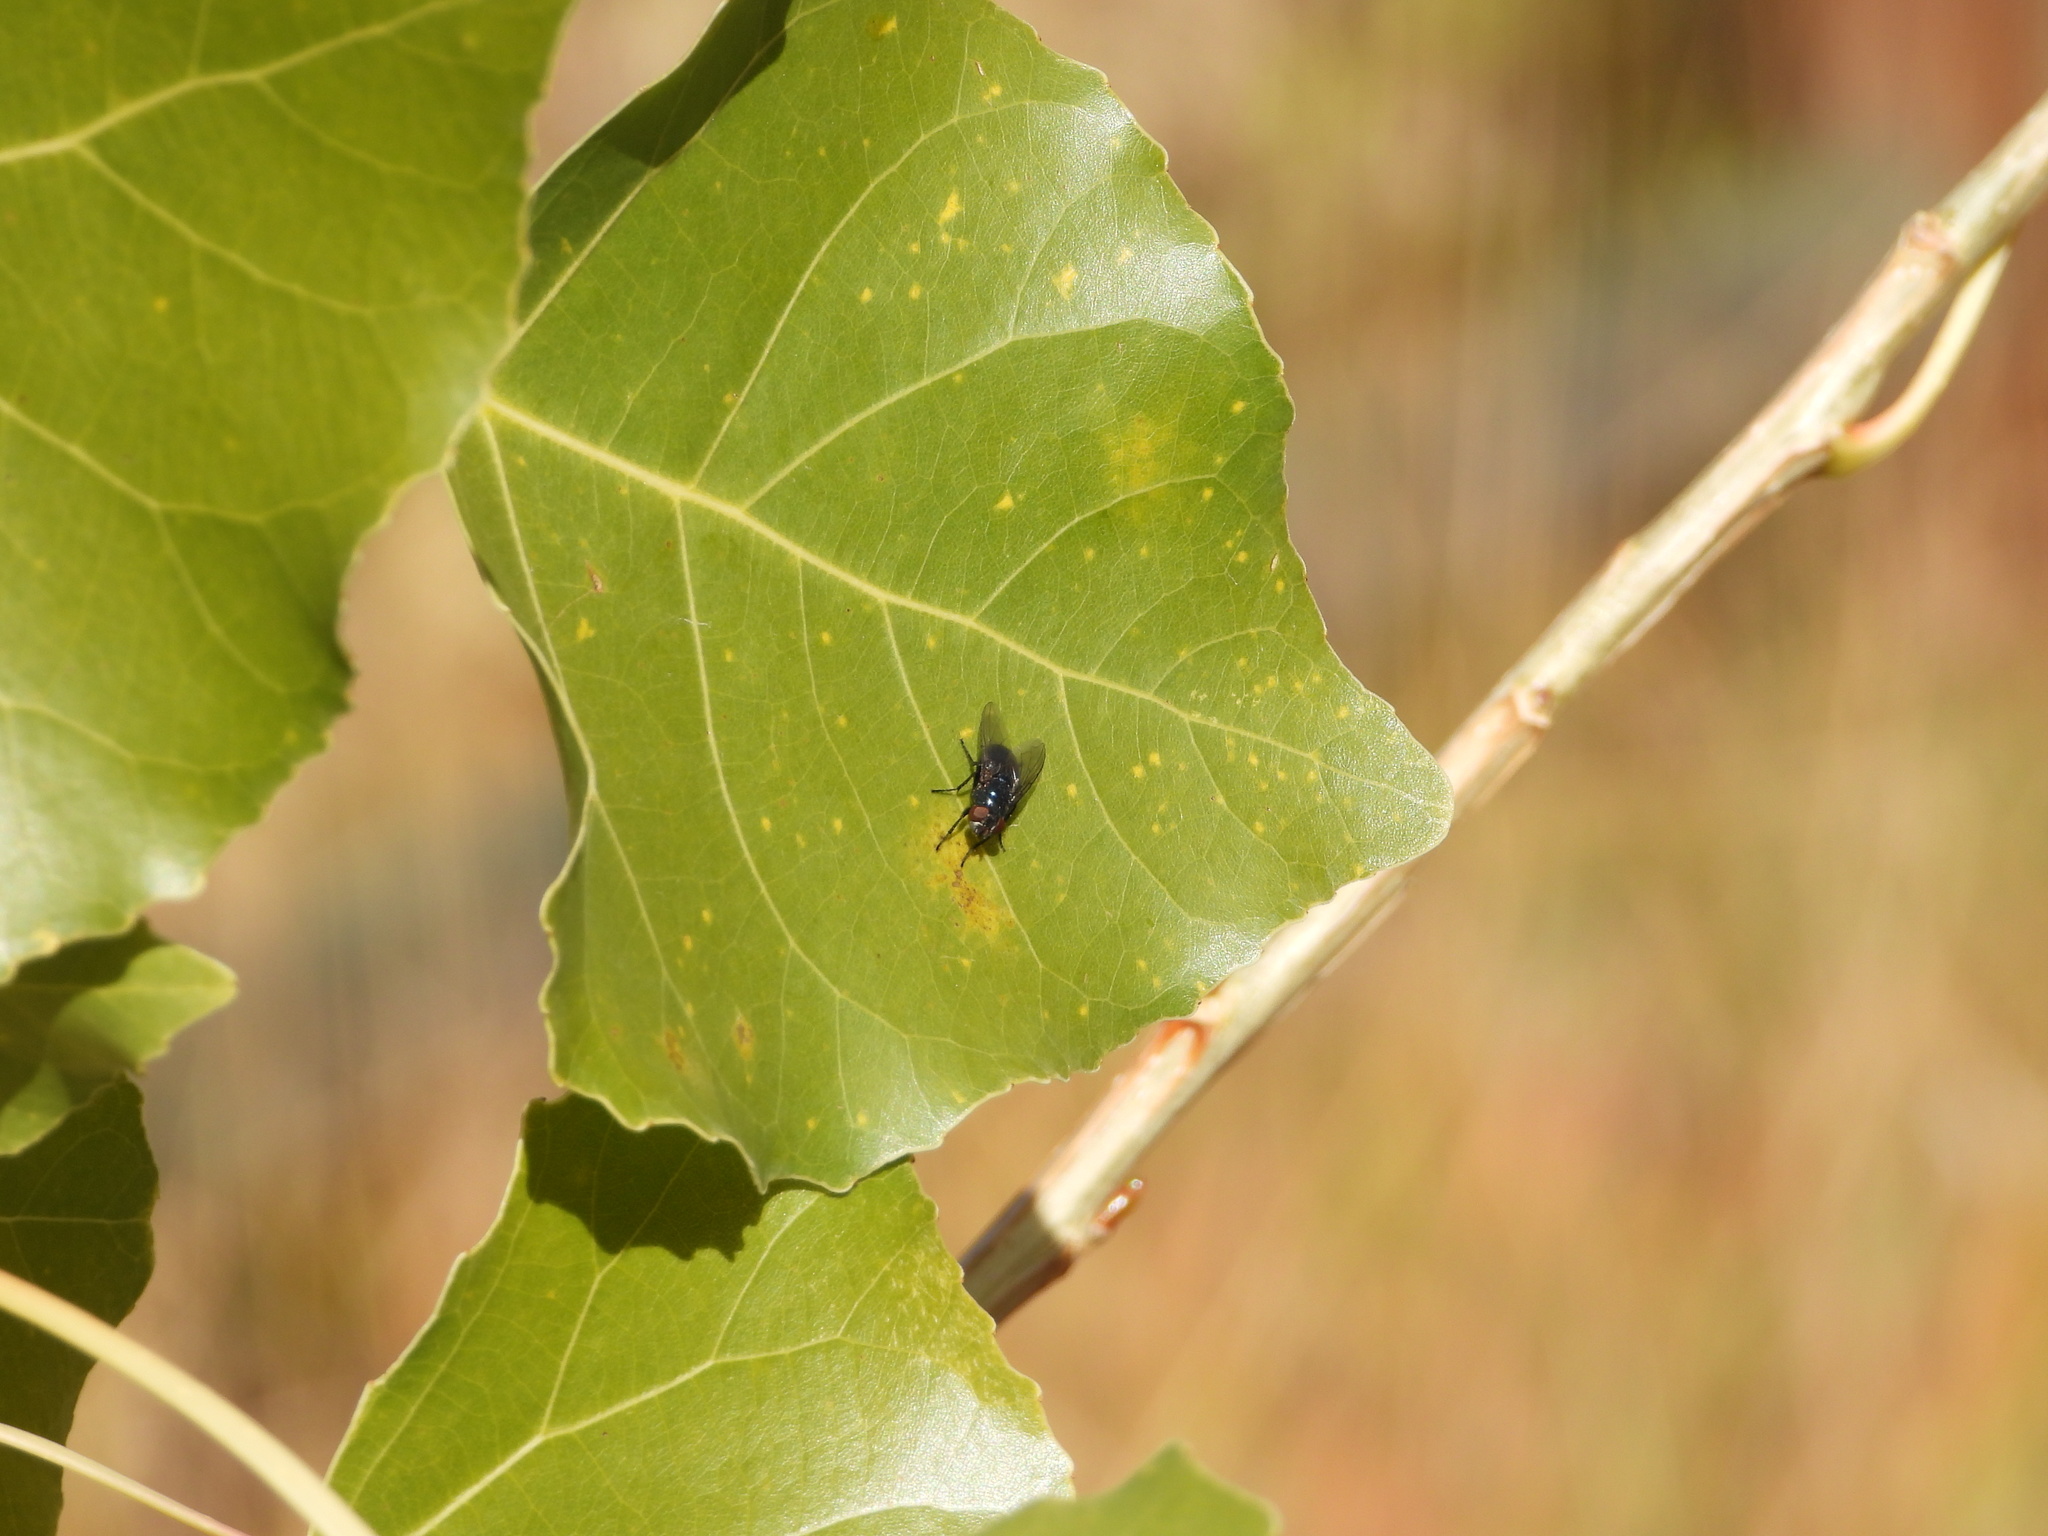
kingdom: Animalia
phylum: Arthropoda
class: Insecta
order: Diptera
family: Calliphoridae
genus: Phormia
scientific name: Phormia regina
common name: Black blow fly
